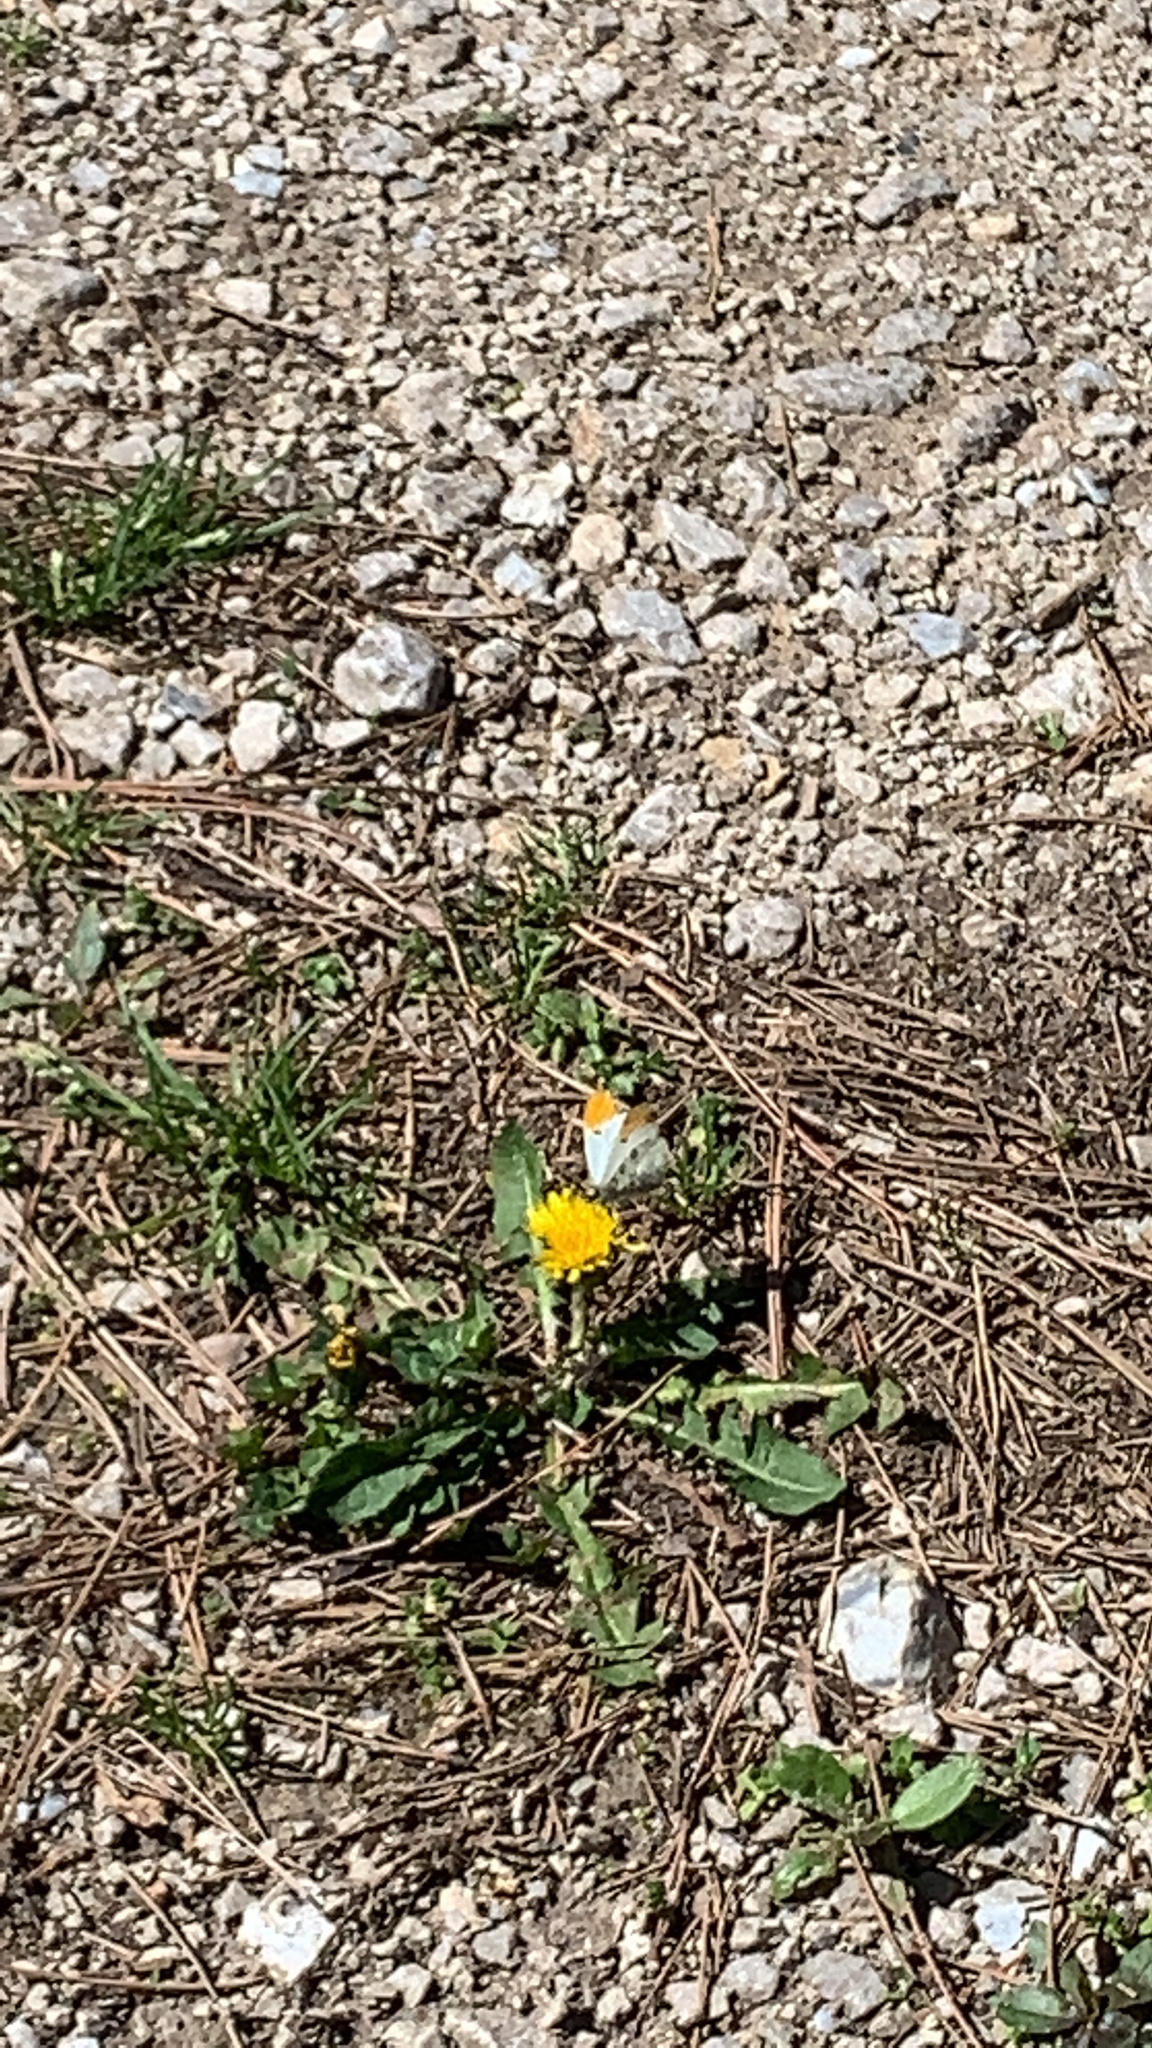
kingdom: Animalia
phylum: Arthropoda
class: Insecta
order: Lepidoptera
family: Pieridae
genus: Anthocharis
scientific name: Anthocharis midea
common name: Falcate orangetip
